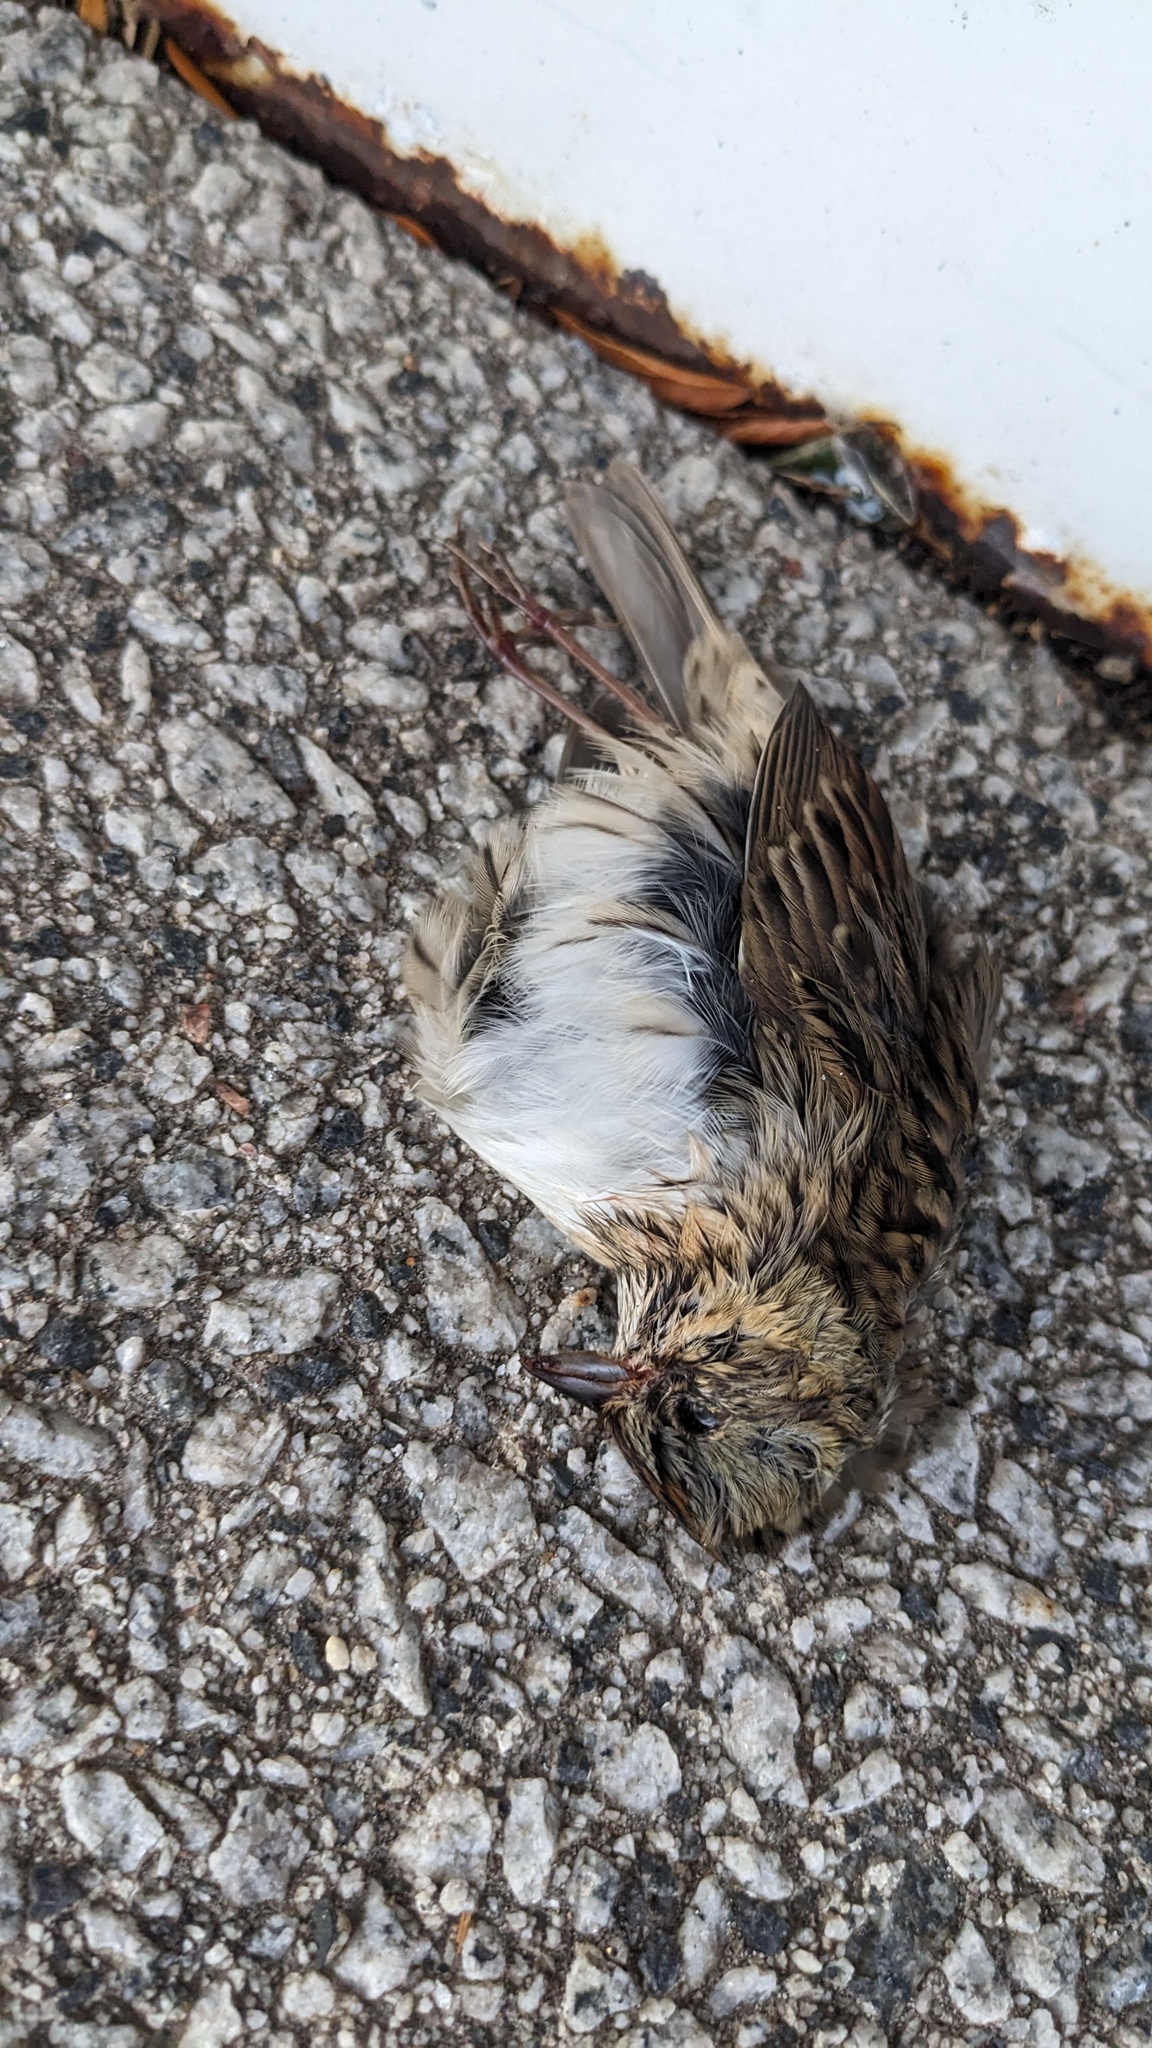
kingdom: Animalia
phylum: Chordata
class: Aves
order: Passeriformes
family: Passerellidae
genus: Melospiza
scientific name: Melospiza lincolnii
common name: Lincoln's sparrow
